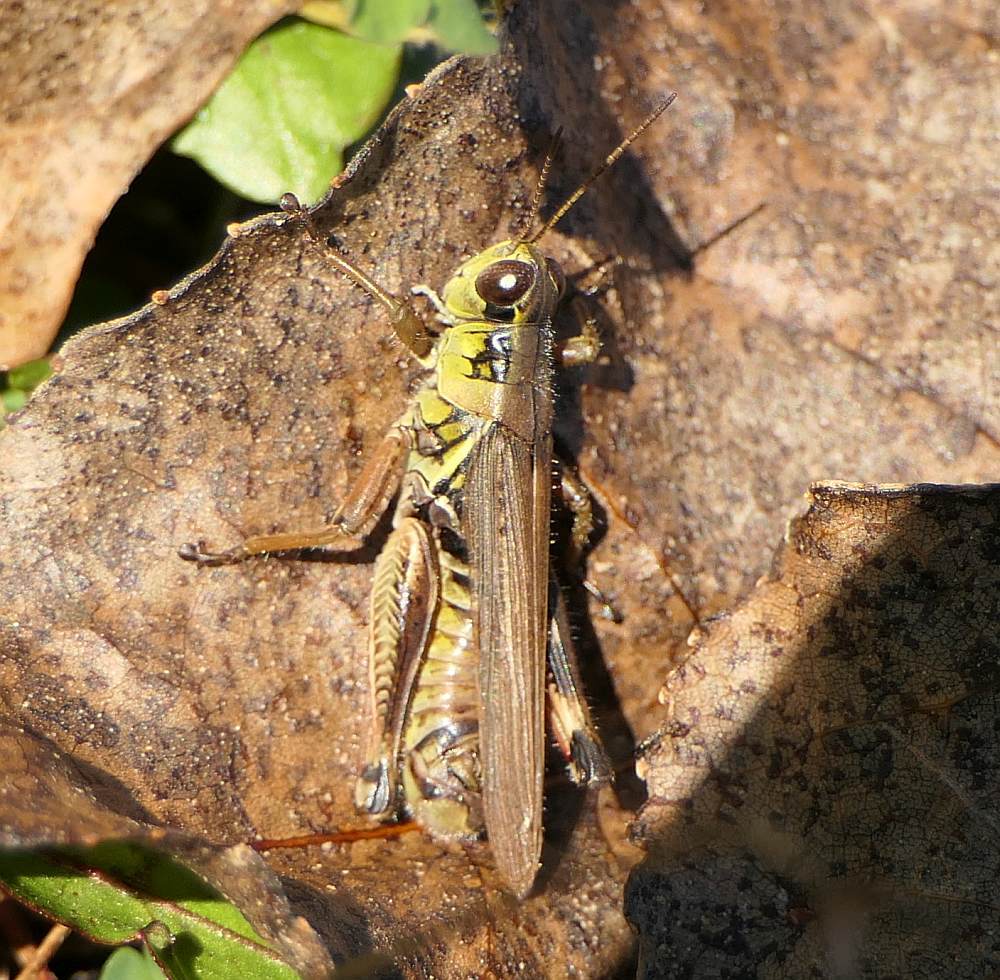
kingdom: Animalia
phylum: Arthropoda
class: Insecta
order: Orthoptera
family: Acrididae
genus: Melanoplus
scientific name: Melanoplus femurrubrum
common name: Red-legged grasshopper
